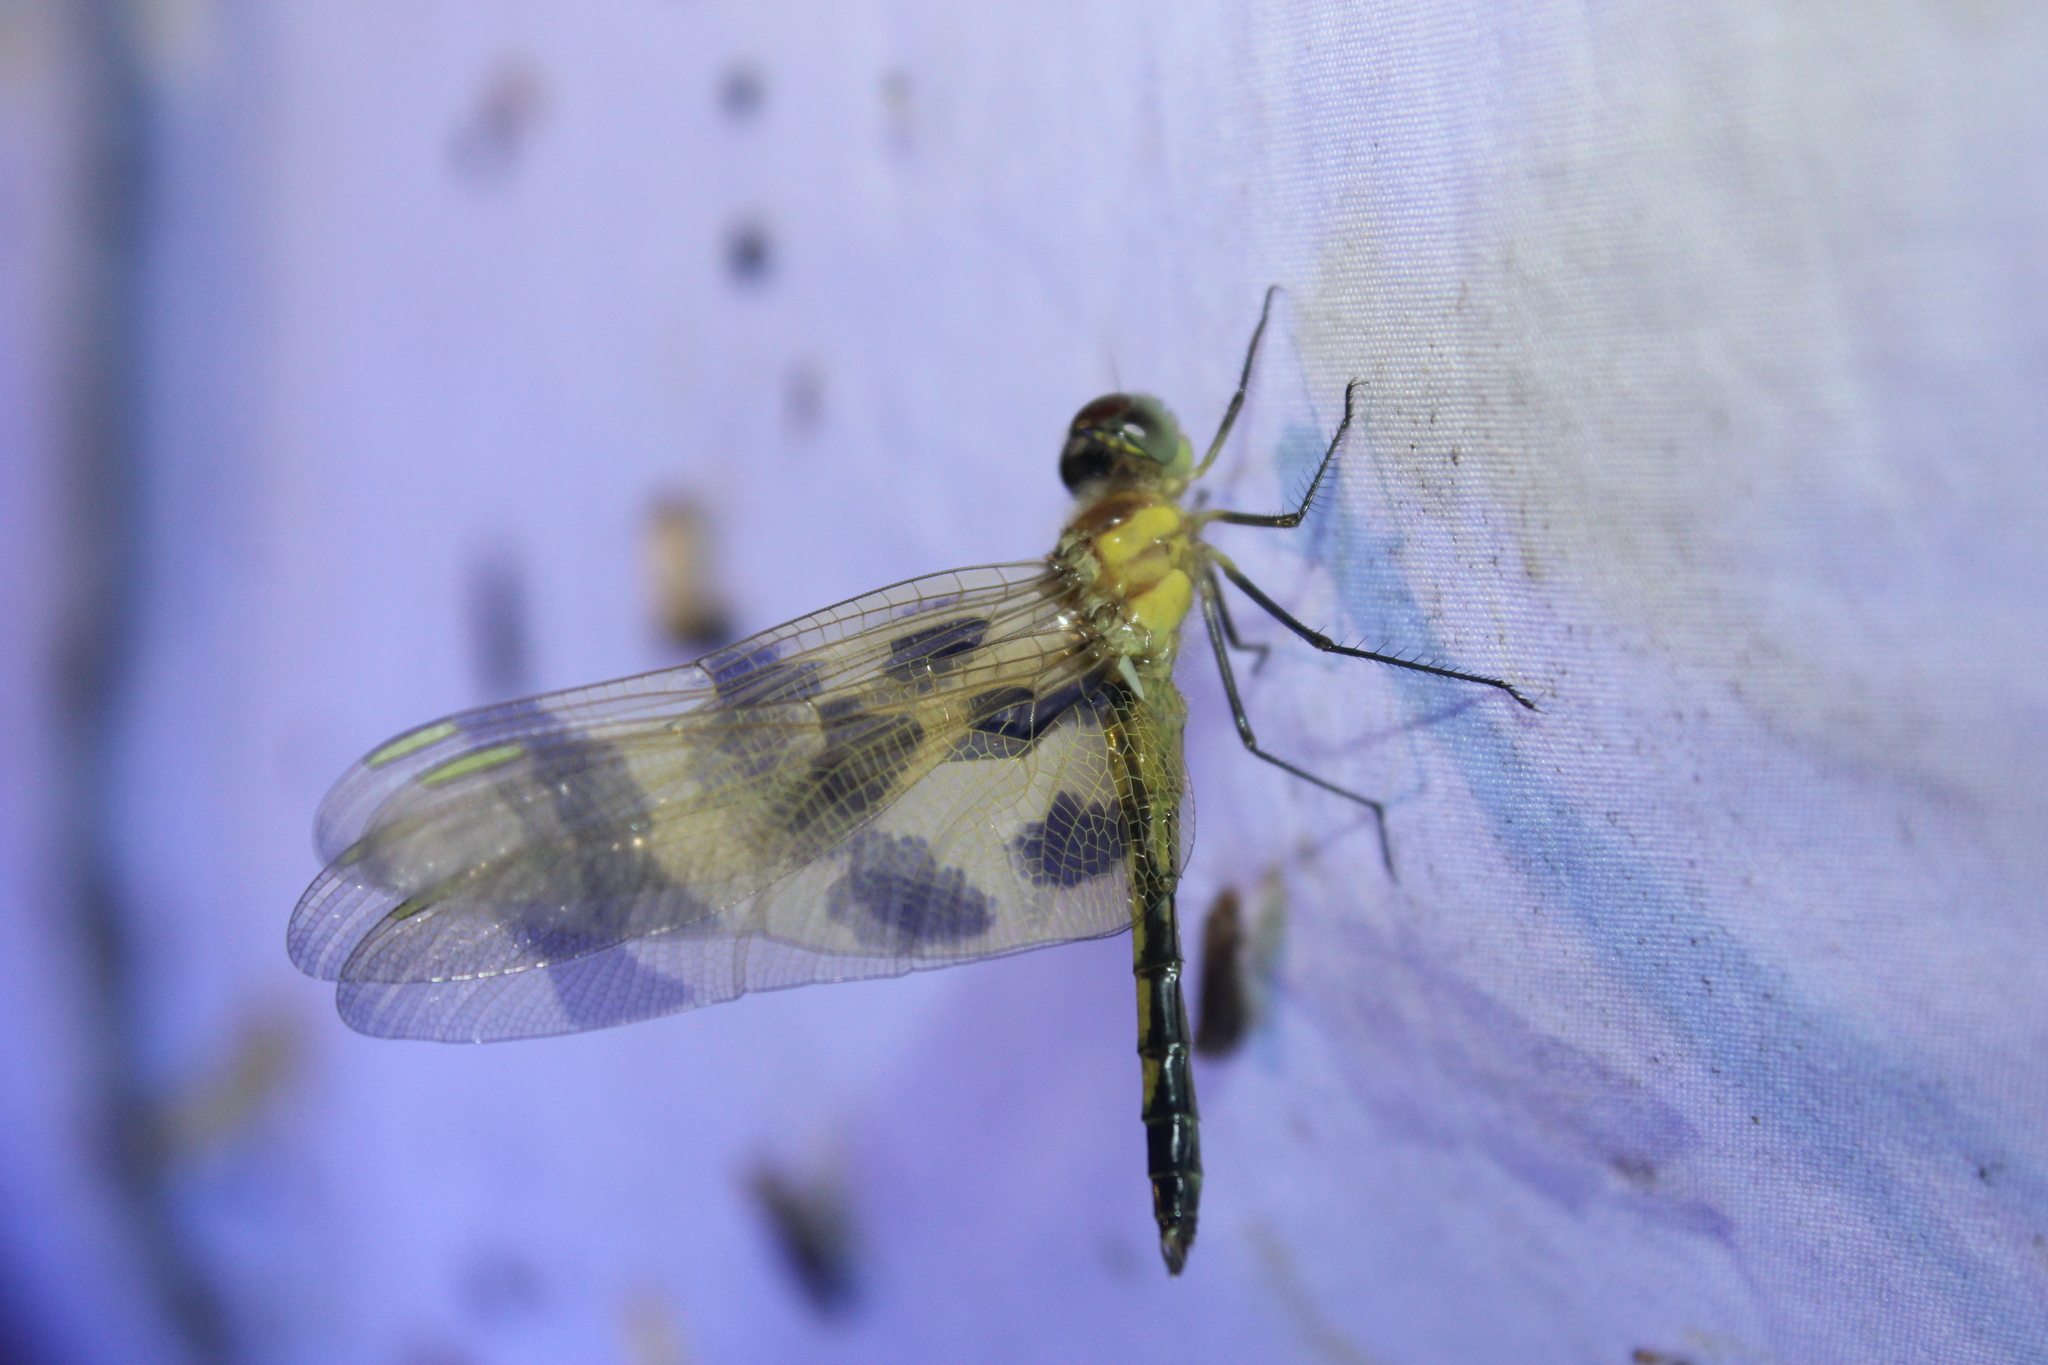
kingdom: Animalia
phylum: Arthropoda
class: Insecta
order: Odonata
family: Libellulidae
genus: Celithemis
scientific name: Celithemis eponina
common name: Halloween pennant
